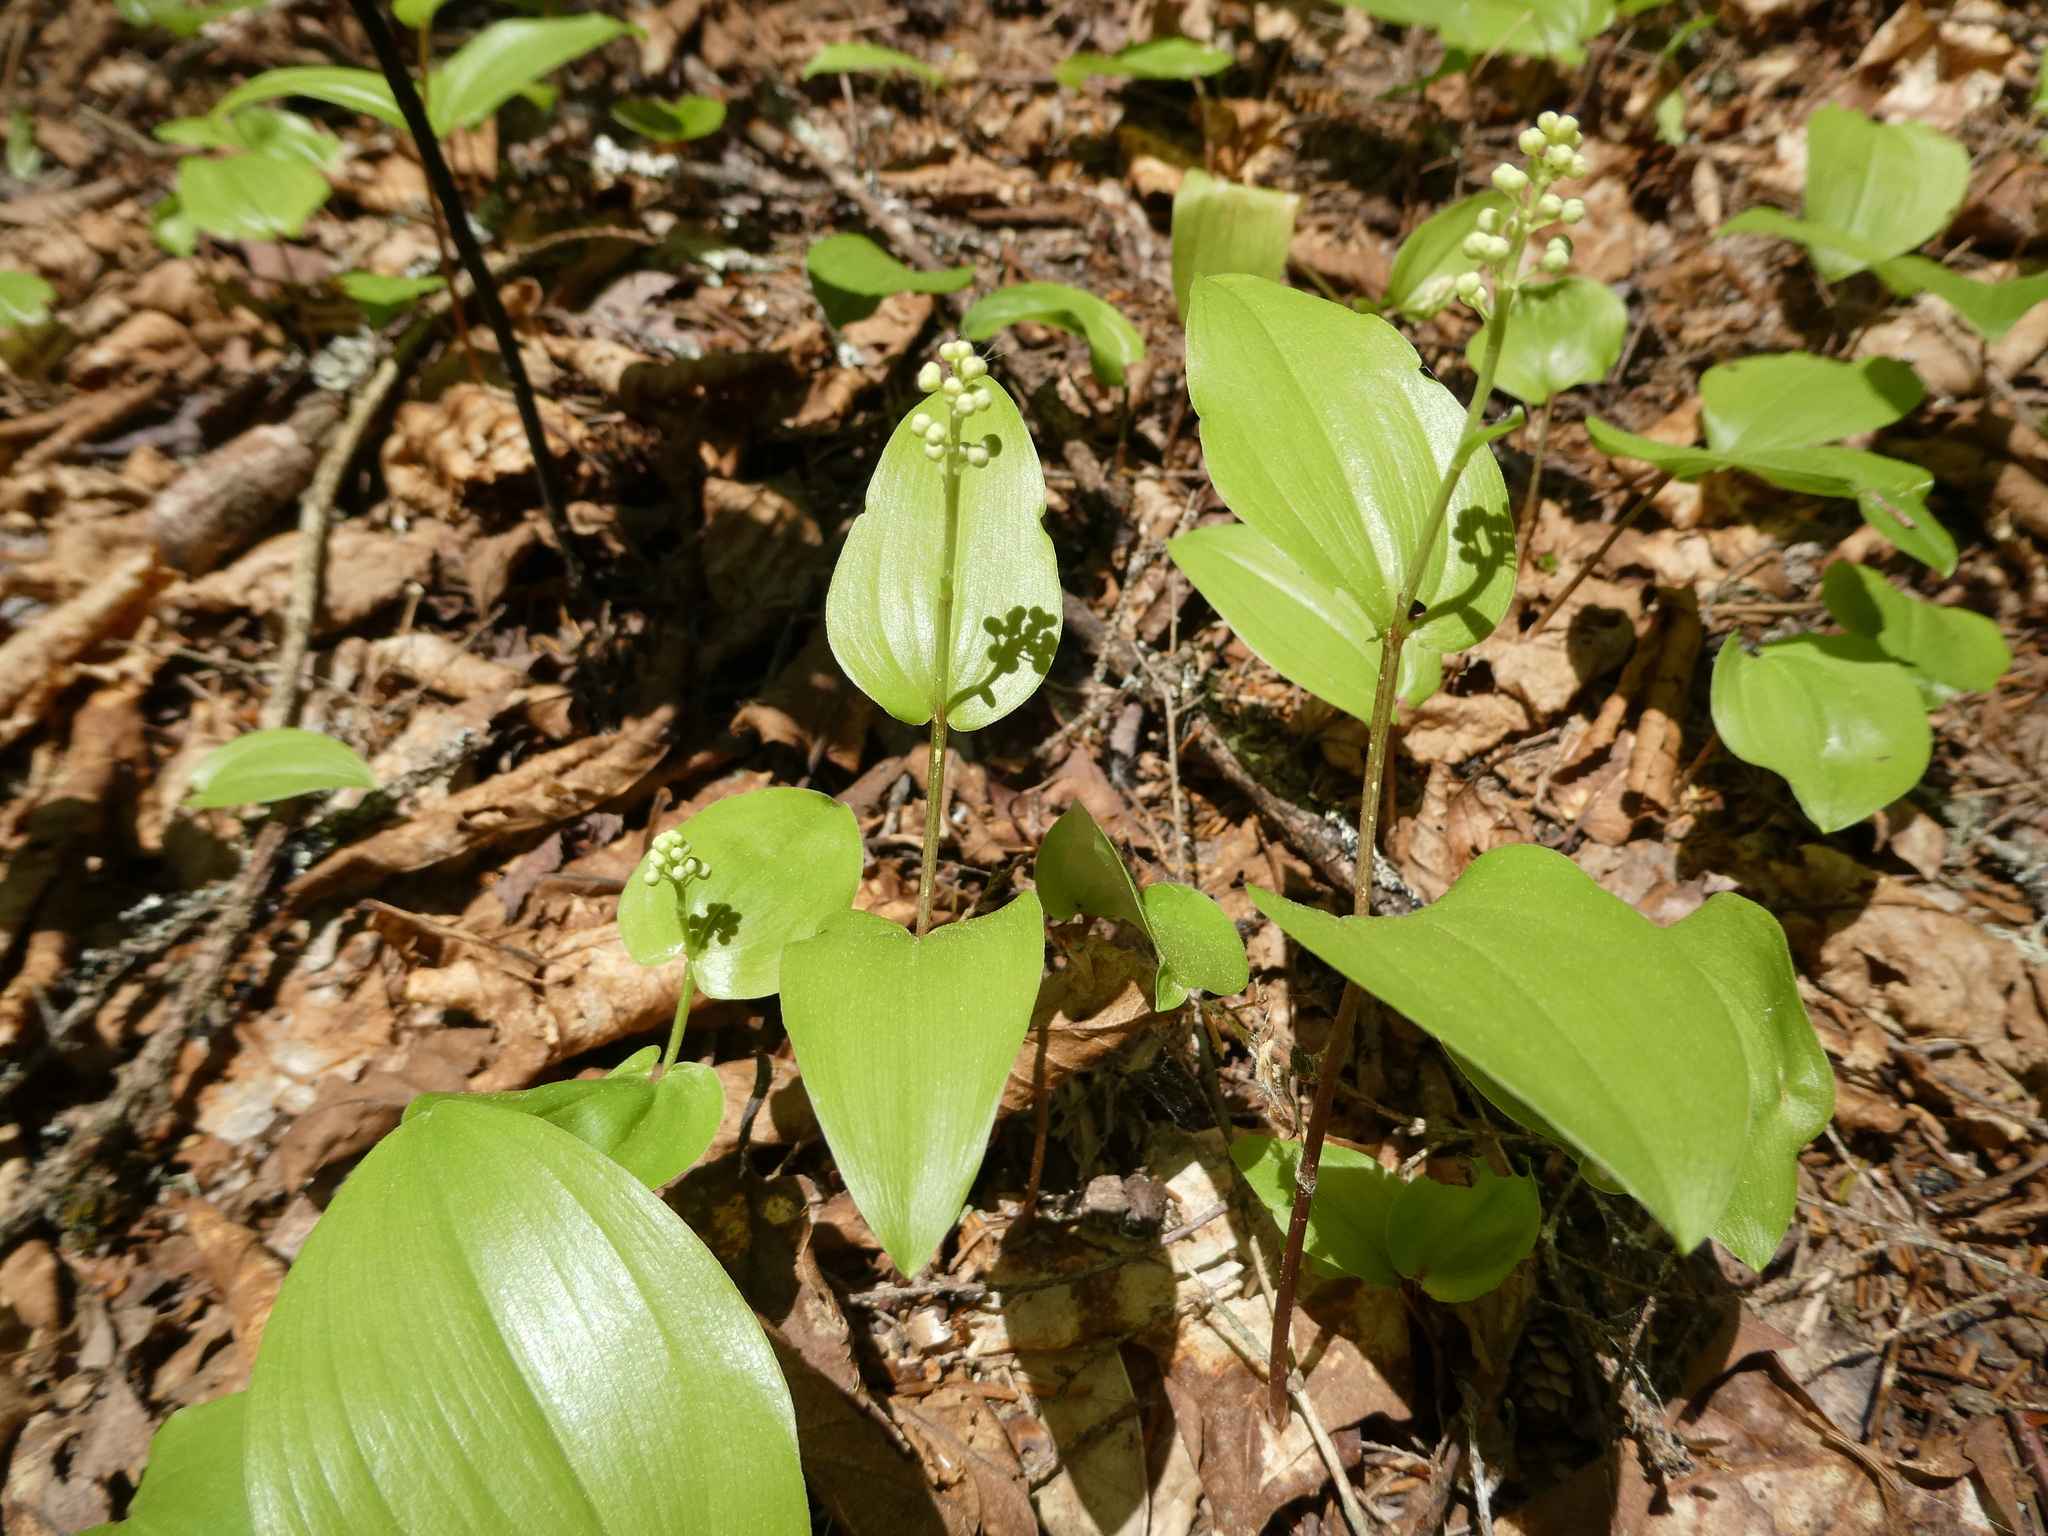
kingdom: Plantae
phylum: Tracheophyta
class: Liliopsida
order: Asparagales
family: Asparagaceae
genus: Maianthemum
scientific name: Maianthemum canadense
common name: False lily-of-the-valley
